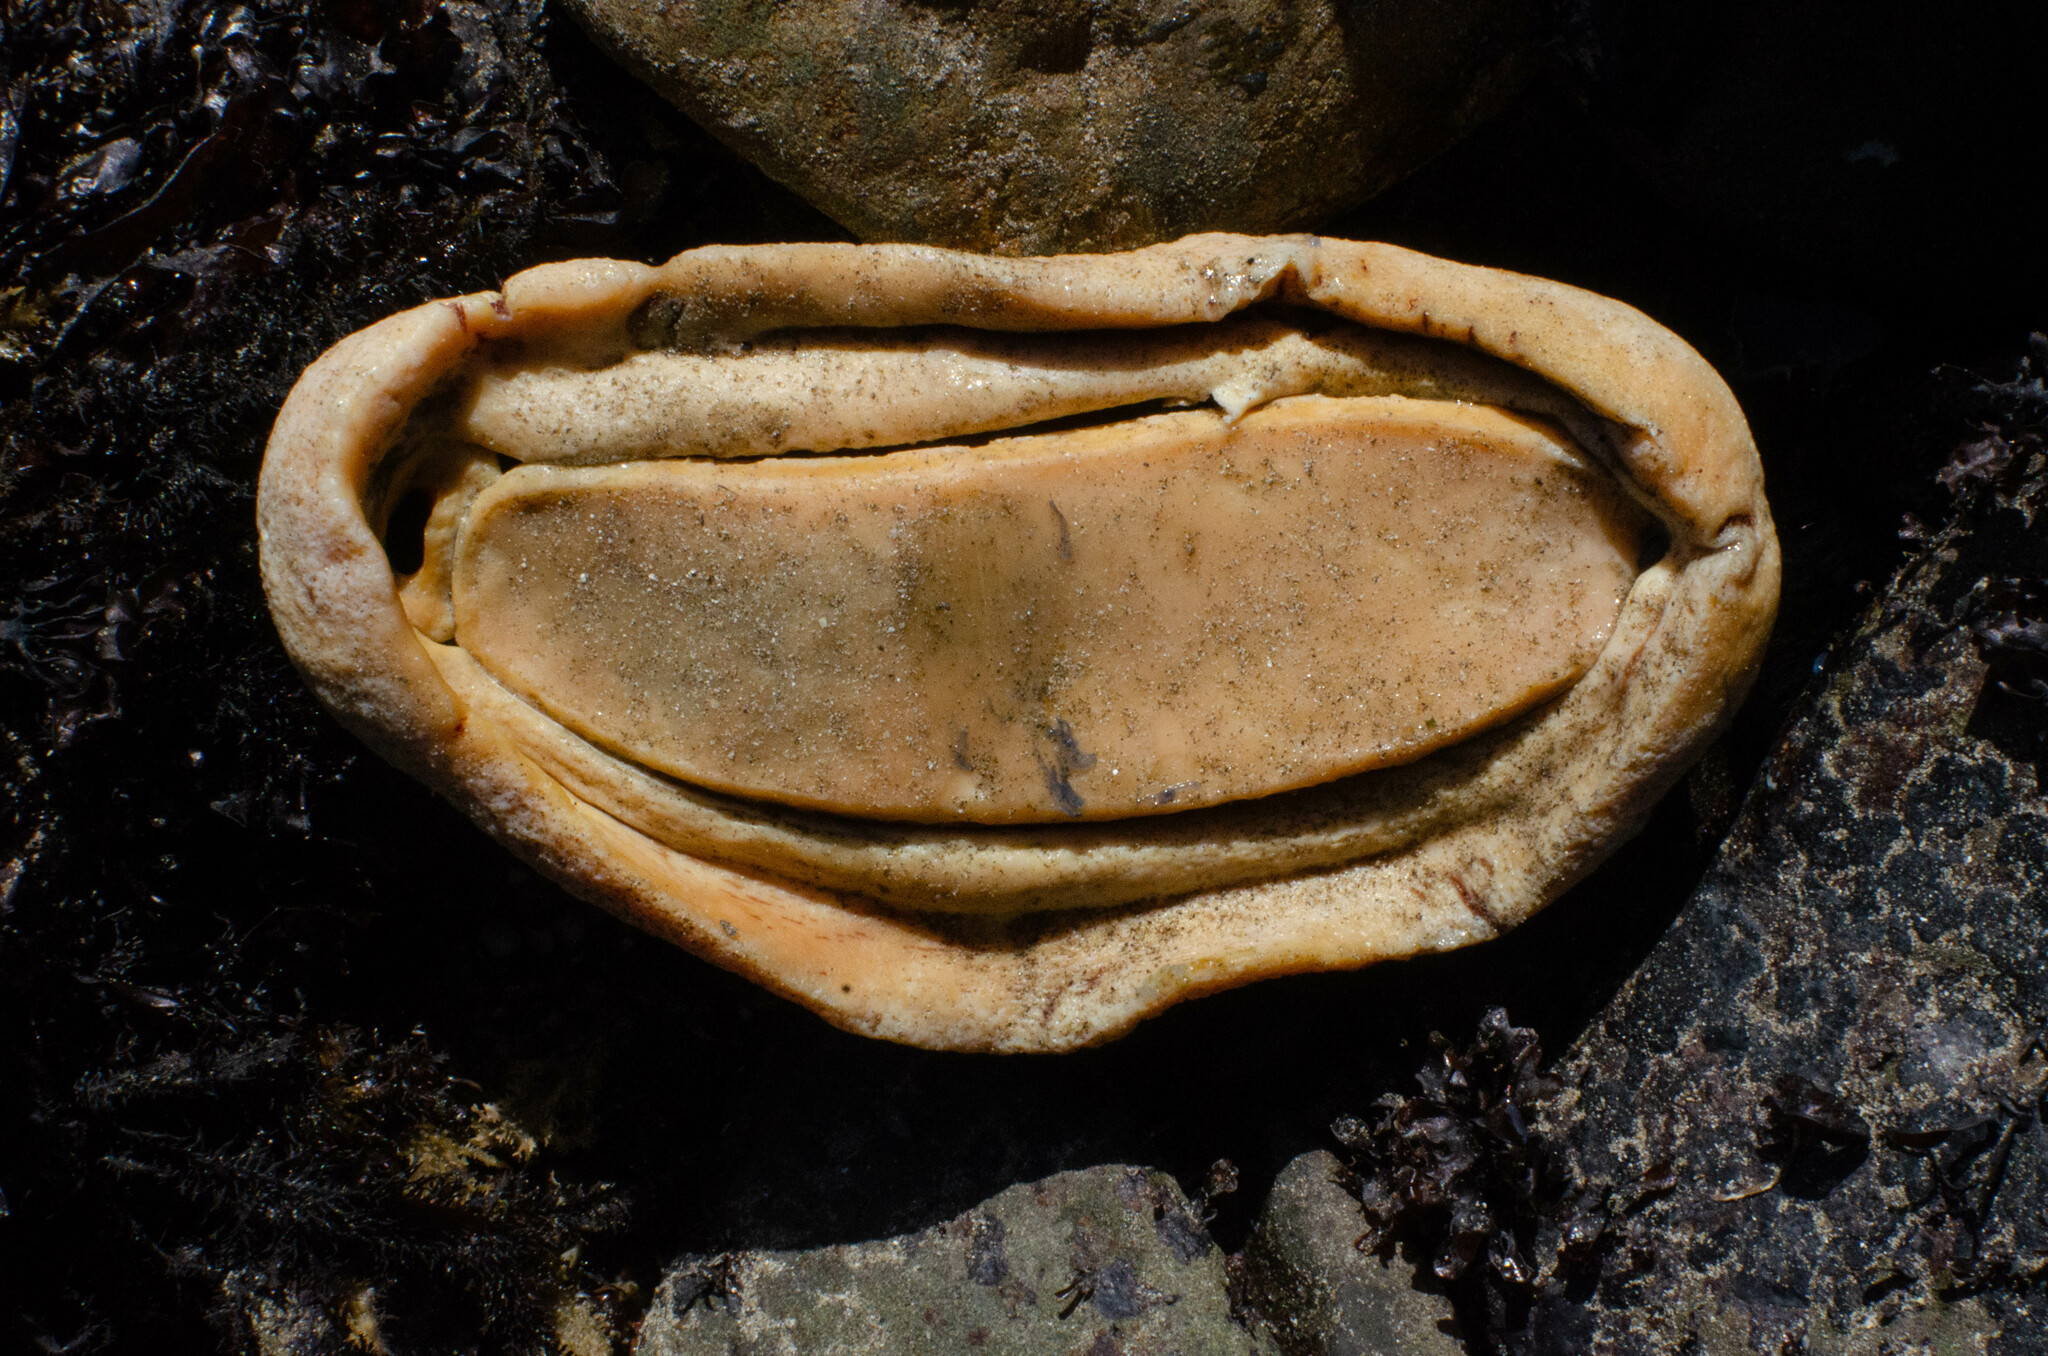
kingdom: Animalia
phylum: Mollusca
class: Polyplacophora
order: Chitonida
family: Acanthochitonidae
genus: Cryptochiton
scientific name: Cryptochiton stelleri
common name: Giant pacific chiton
